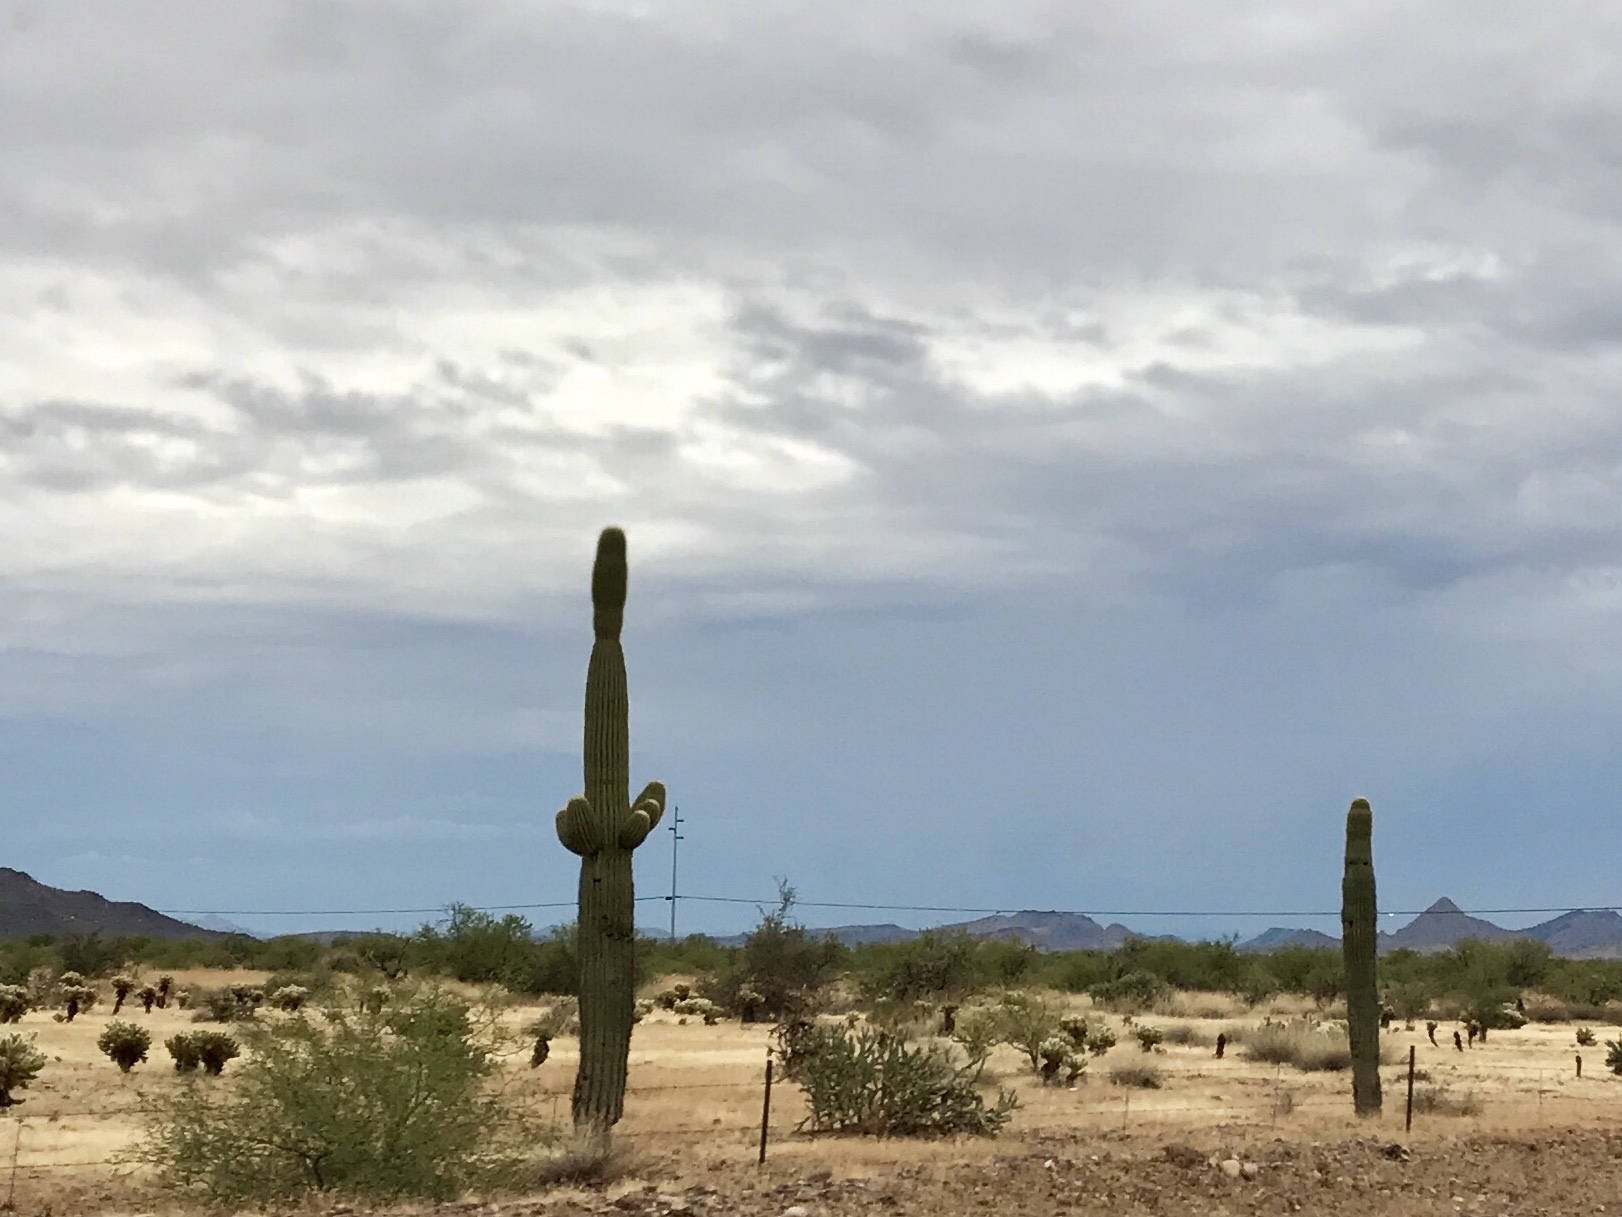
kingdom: Plantae
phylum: Tracheophyta
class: Magnoliopsida
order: Caryophyllales
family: Cactaceae
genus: Carnegiea
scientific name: Carnegiea gigantea
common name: Saguaro
